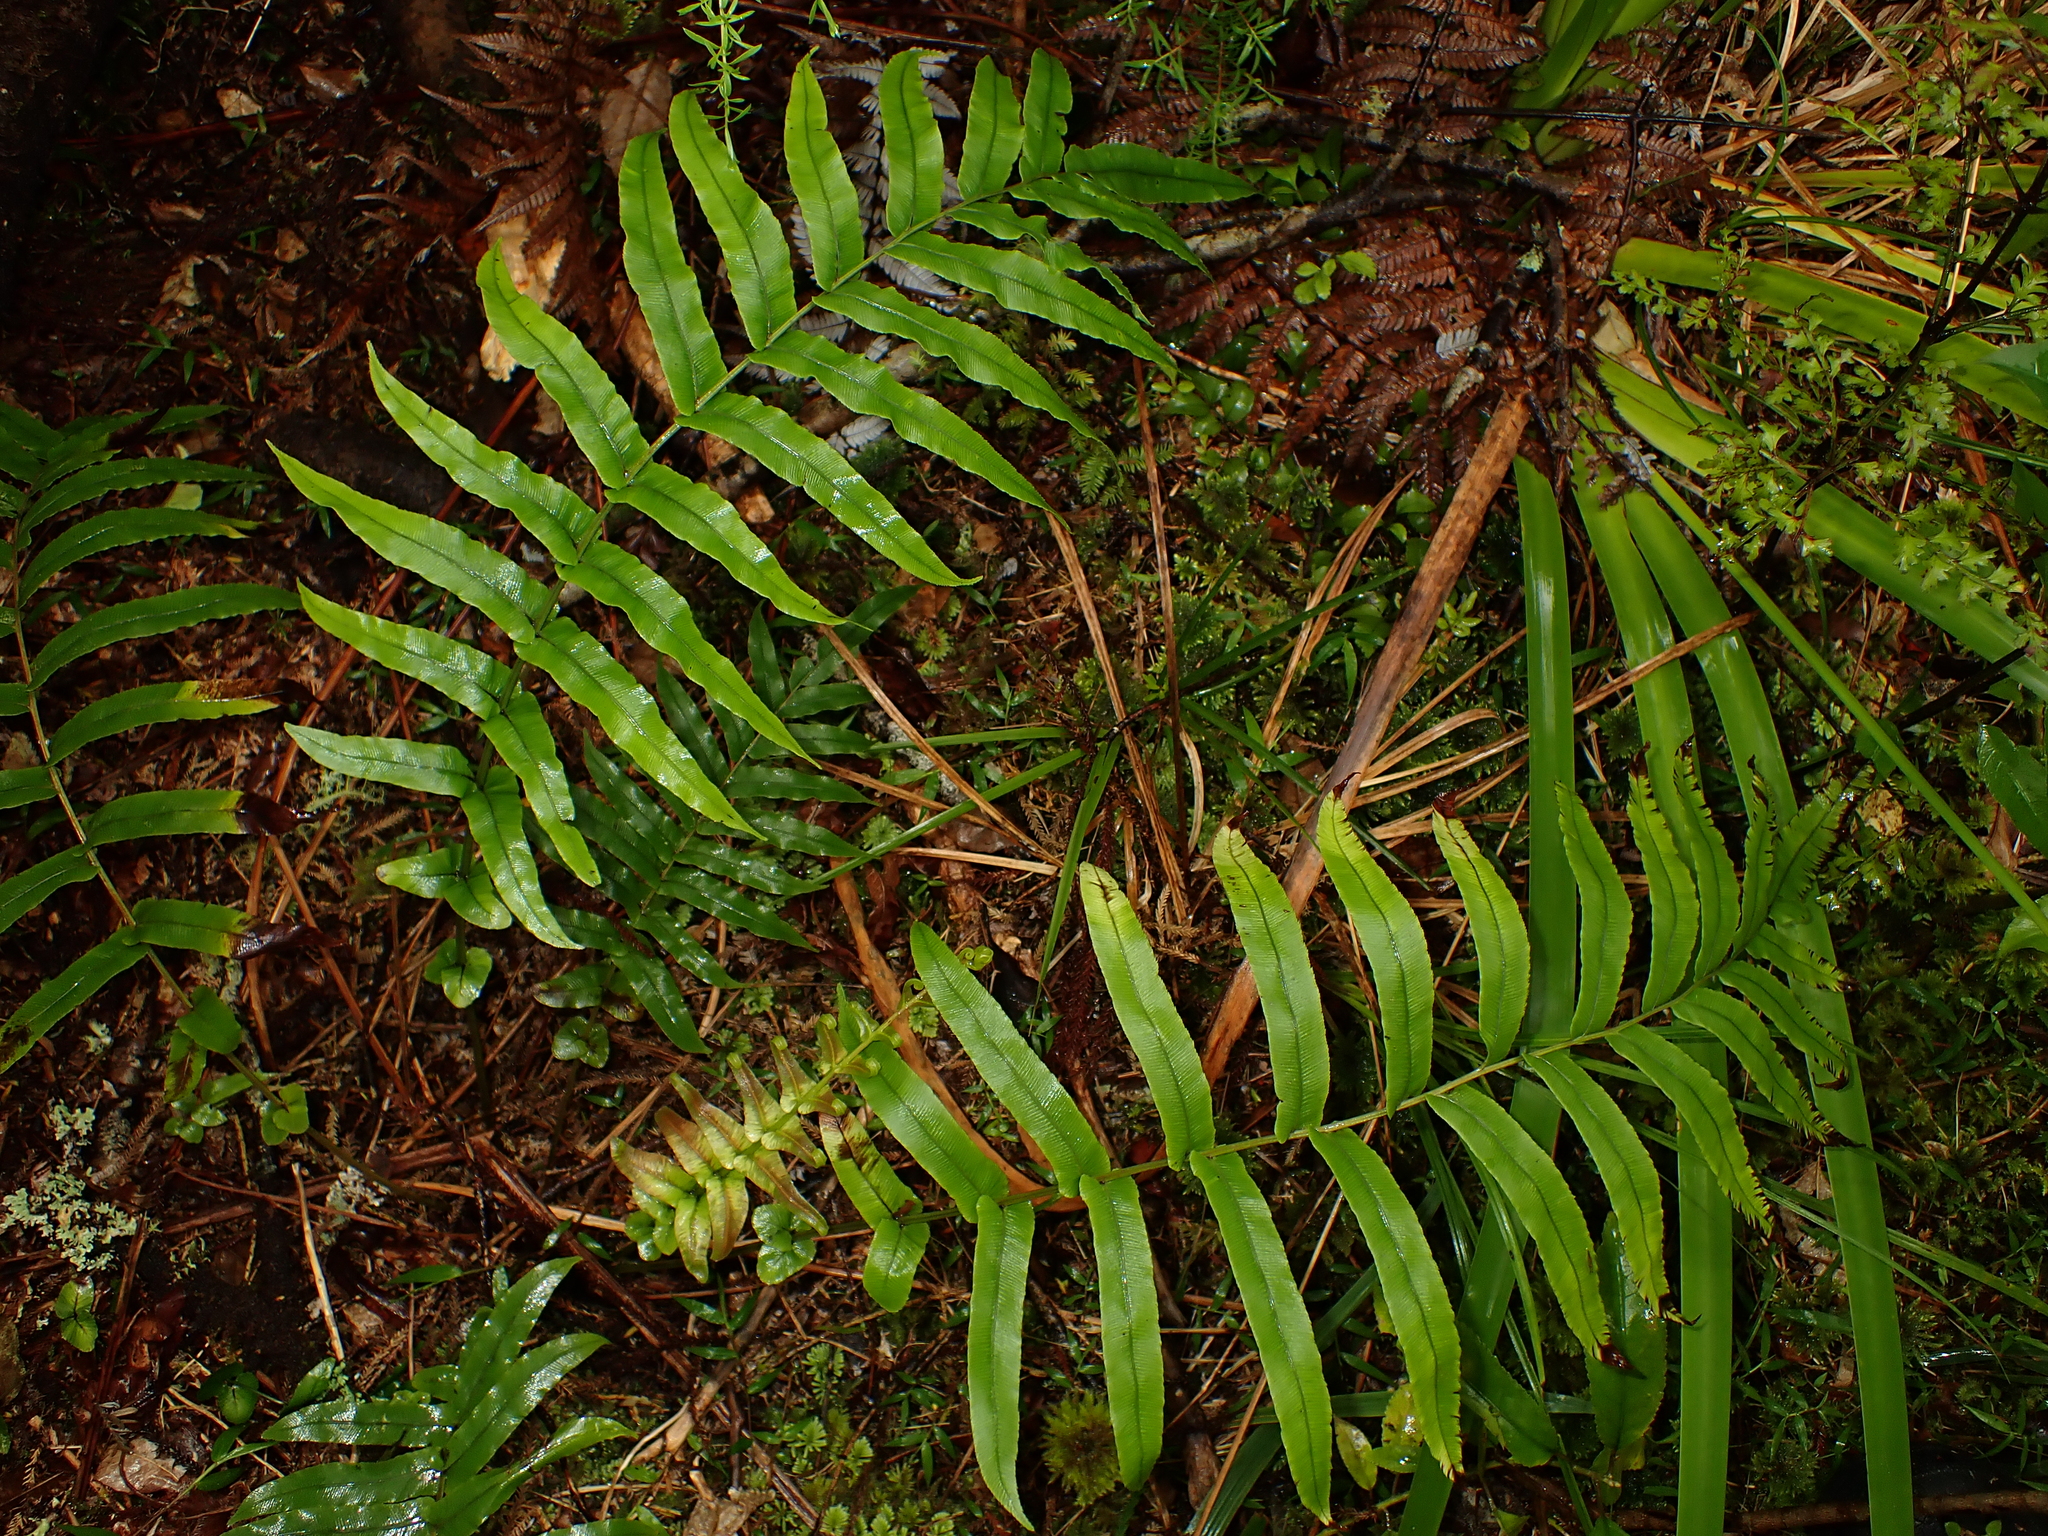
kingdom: Plantae
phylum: Tracheophyta
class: Polypodiopsida
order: Polypodiales
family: Blechnaceae
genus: Parablechnum
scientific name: Parablechnum novae-zelandiae
